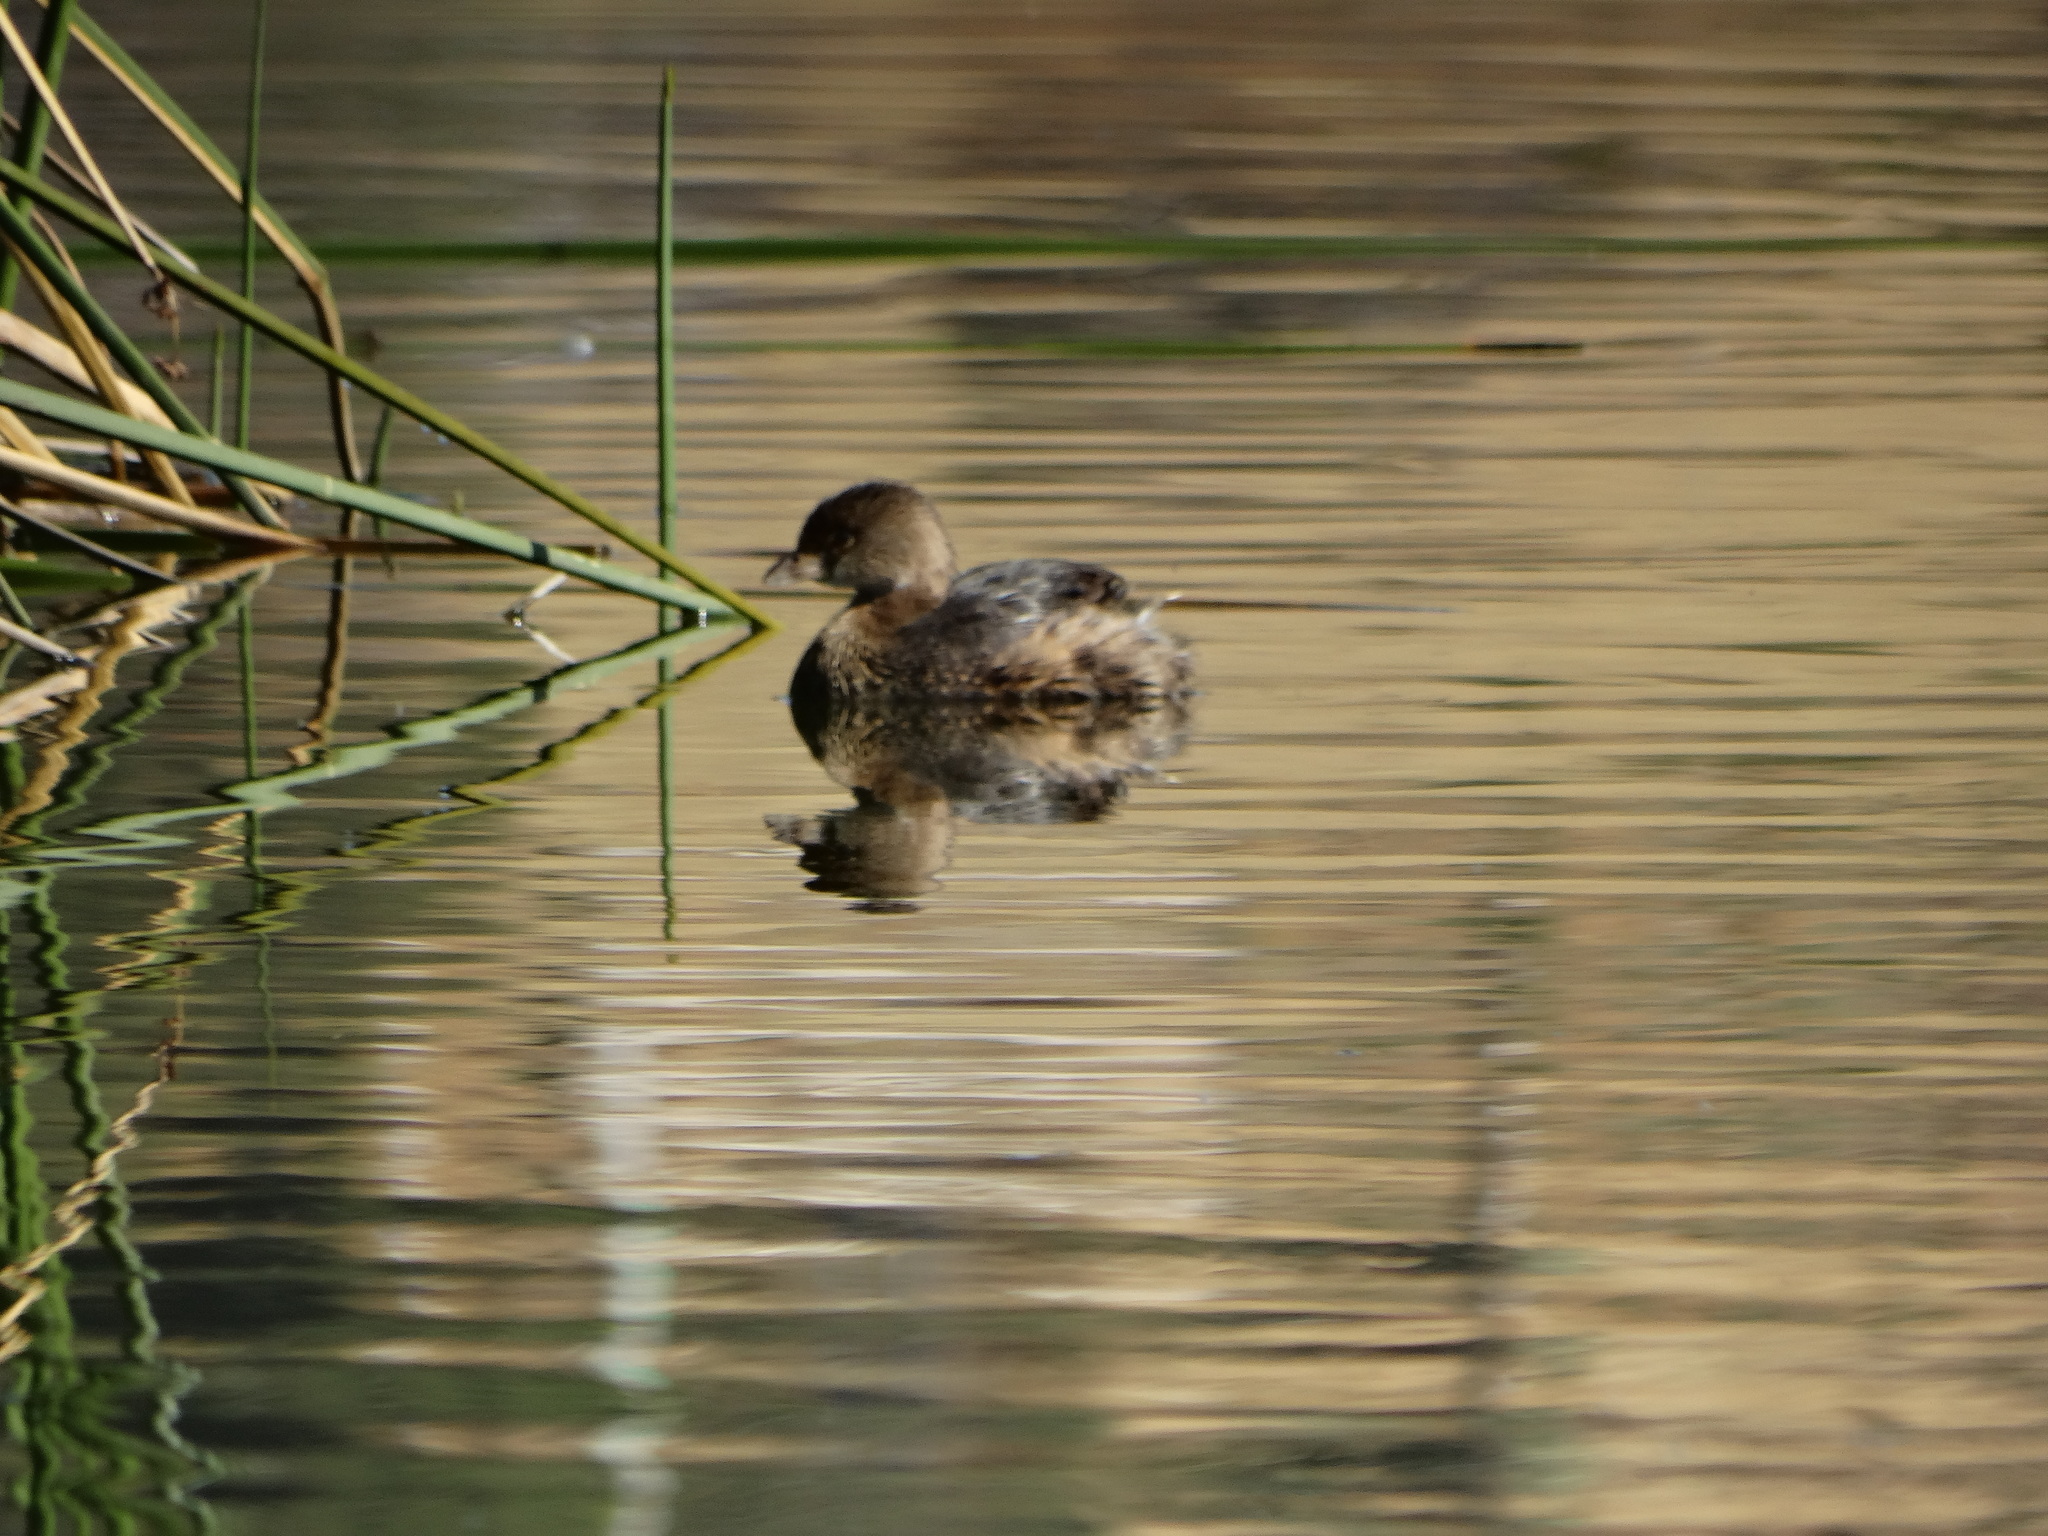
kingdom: Animalia
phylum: Chordata
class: Aves
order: Podicipediformes
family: Podicipedidae
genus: Podilymbus
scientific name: Podilymbus podiceps
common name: Pied-billed grebe
